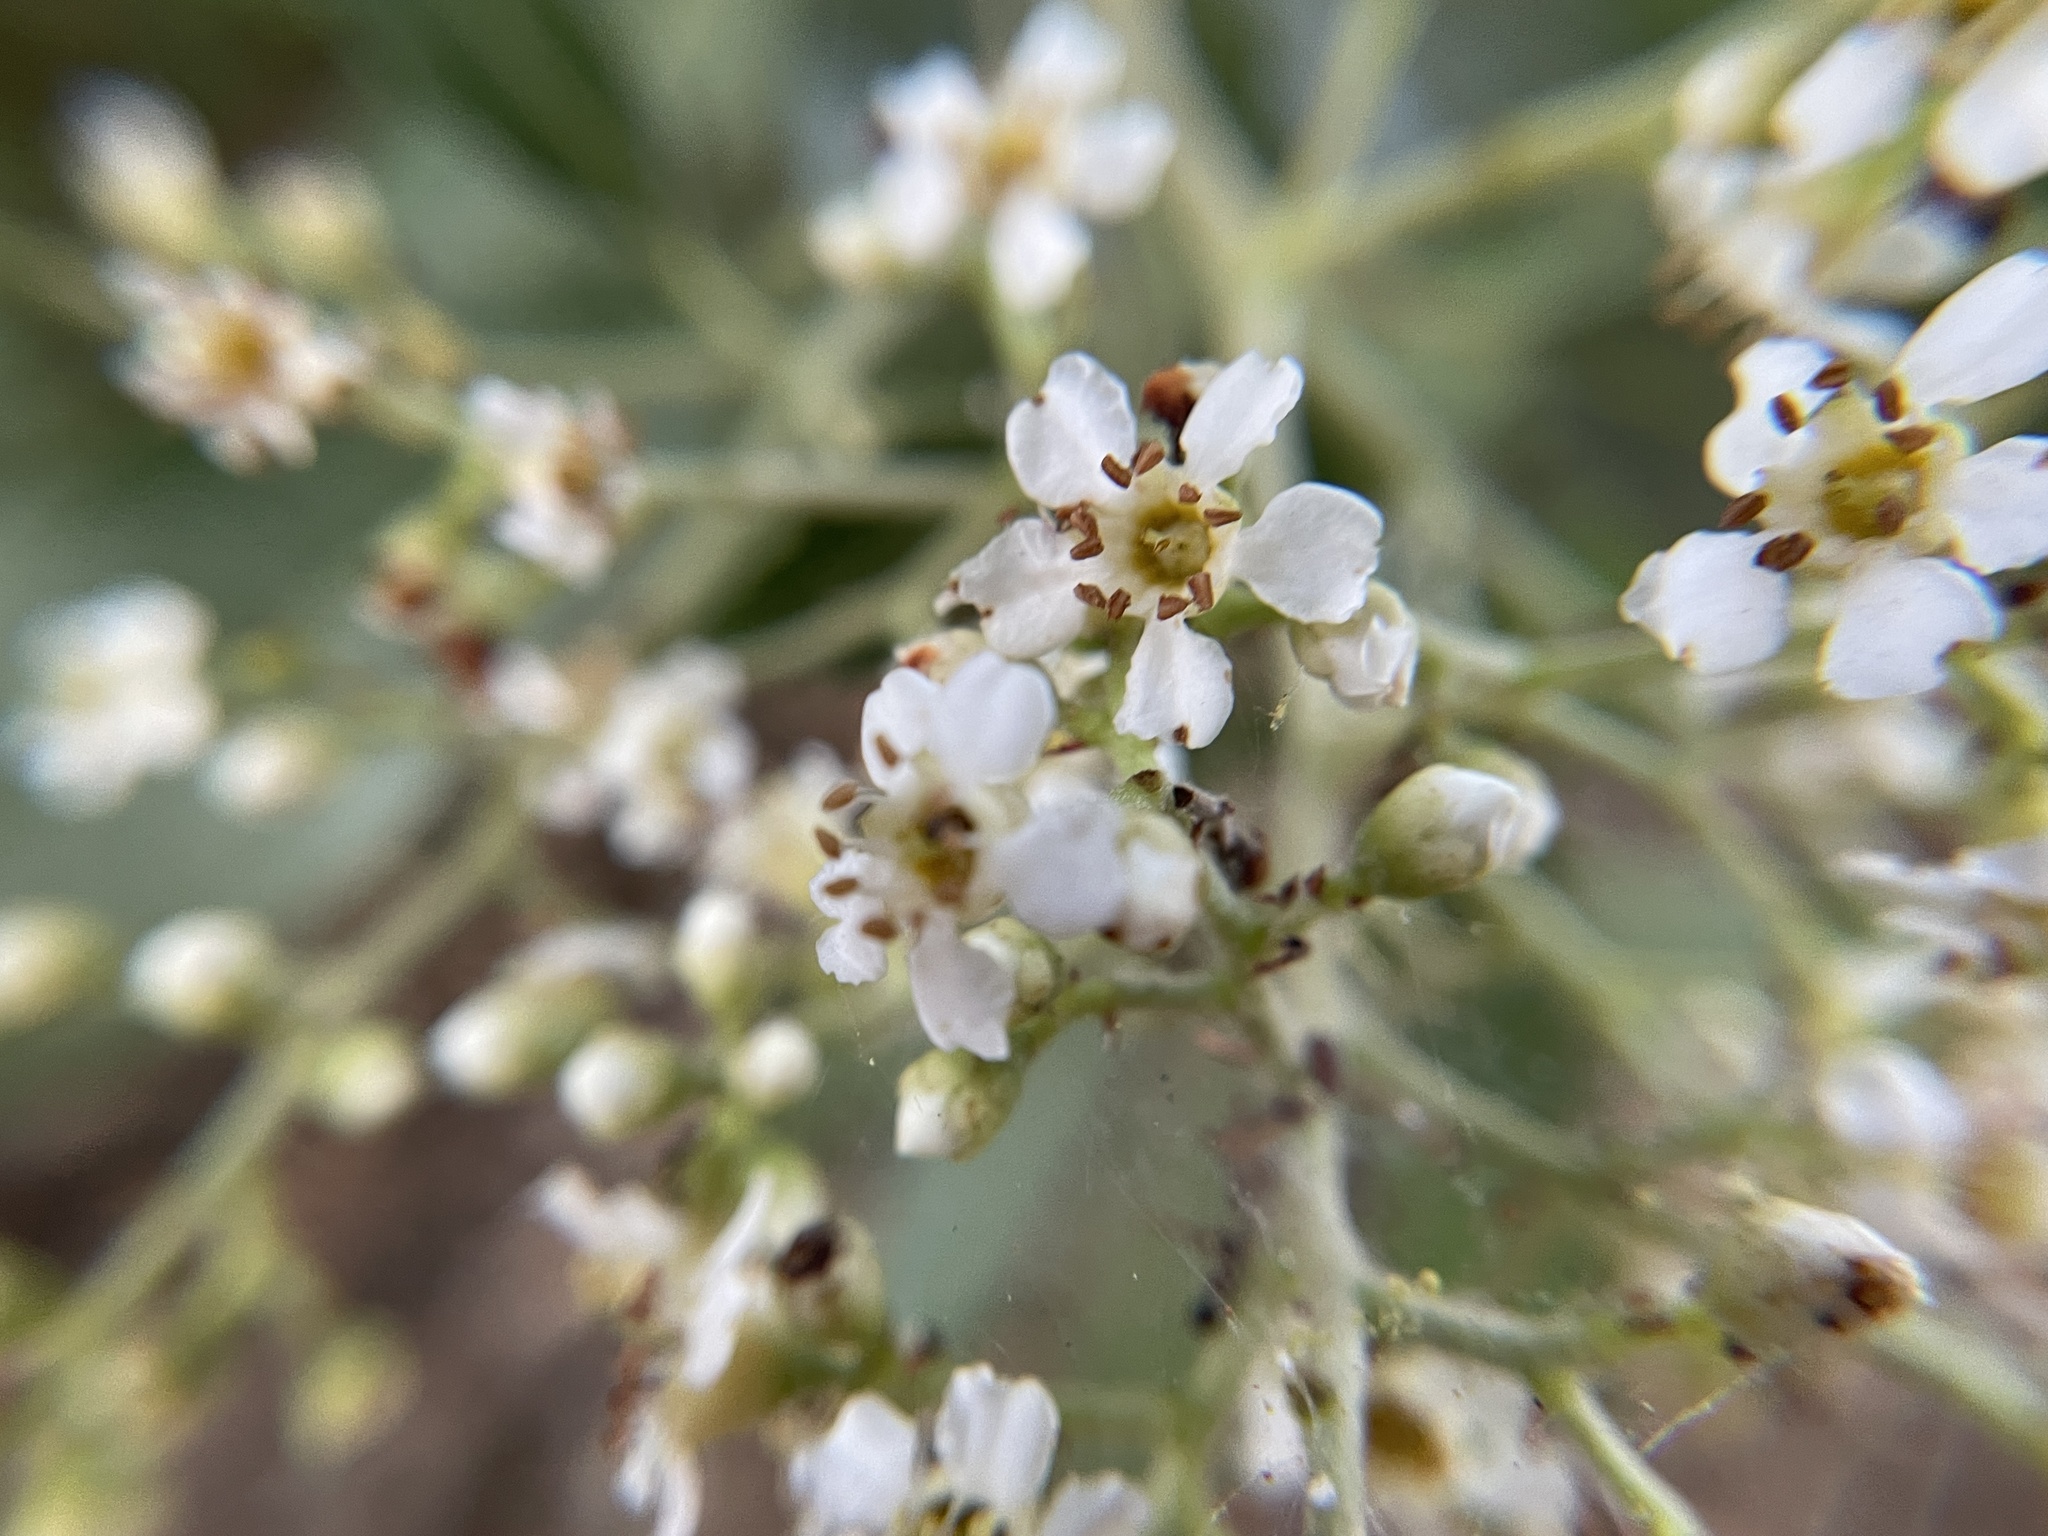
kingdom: Plantae
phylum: Tracheophyta
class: Magnoliopsida
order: Rosales
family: Rosaceae
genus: Heteromeles
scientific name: Heteromeles arbutifolia
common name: California-holly
